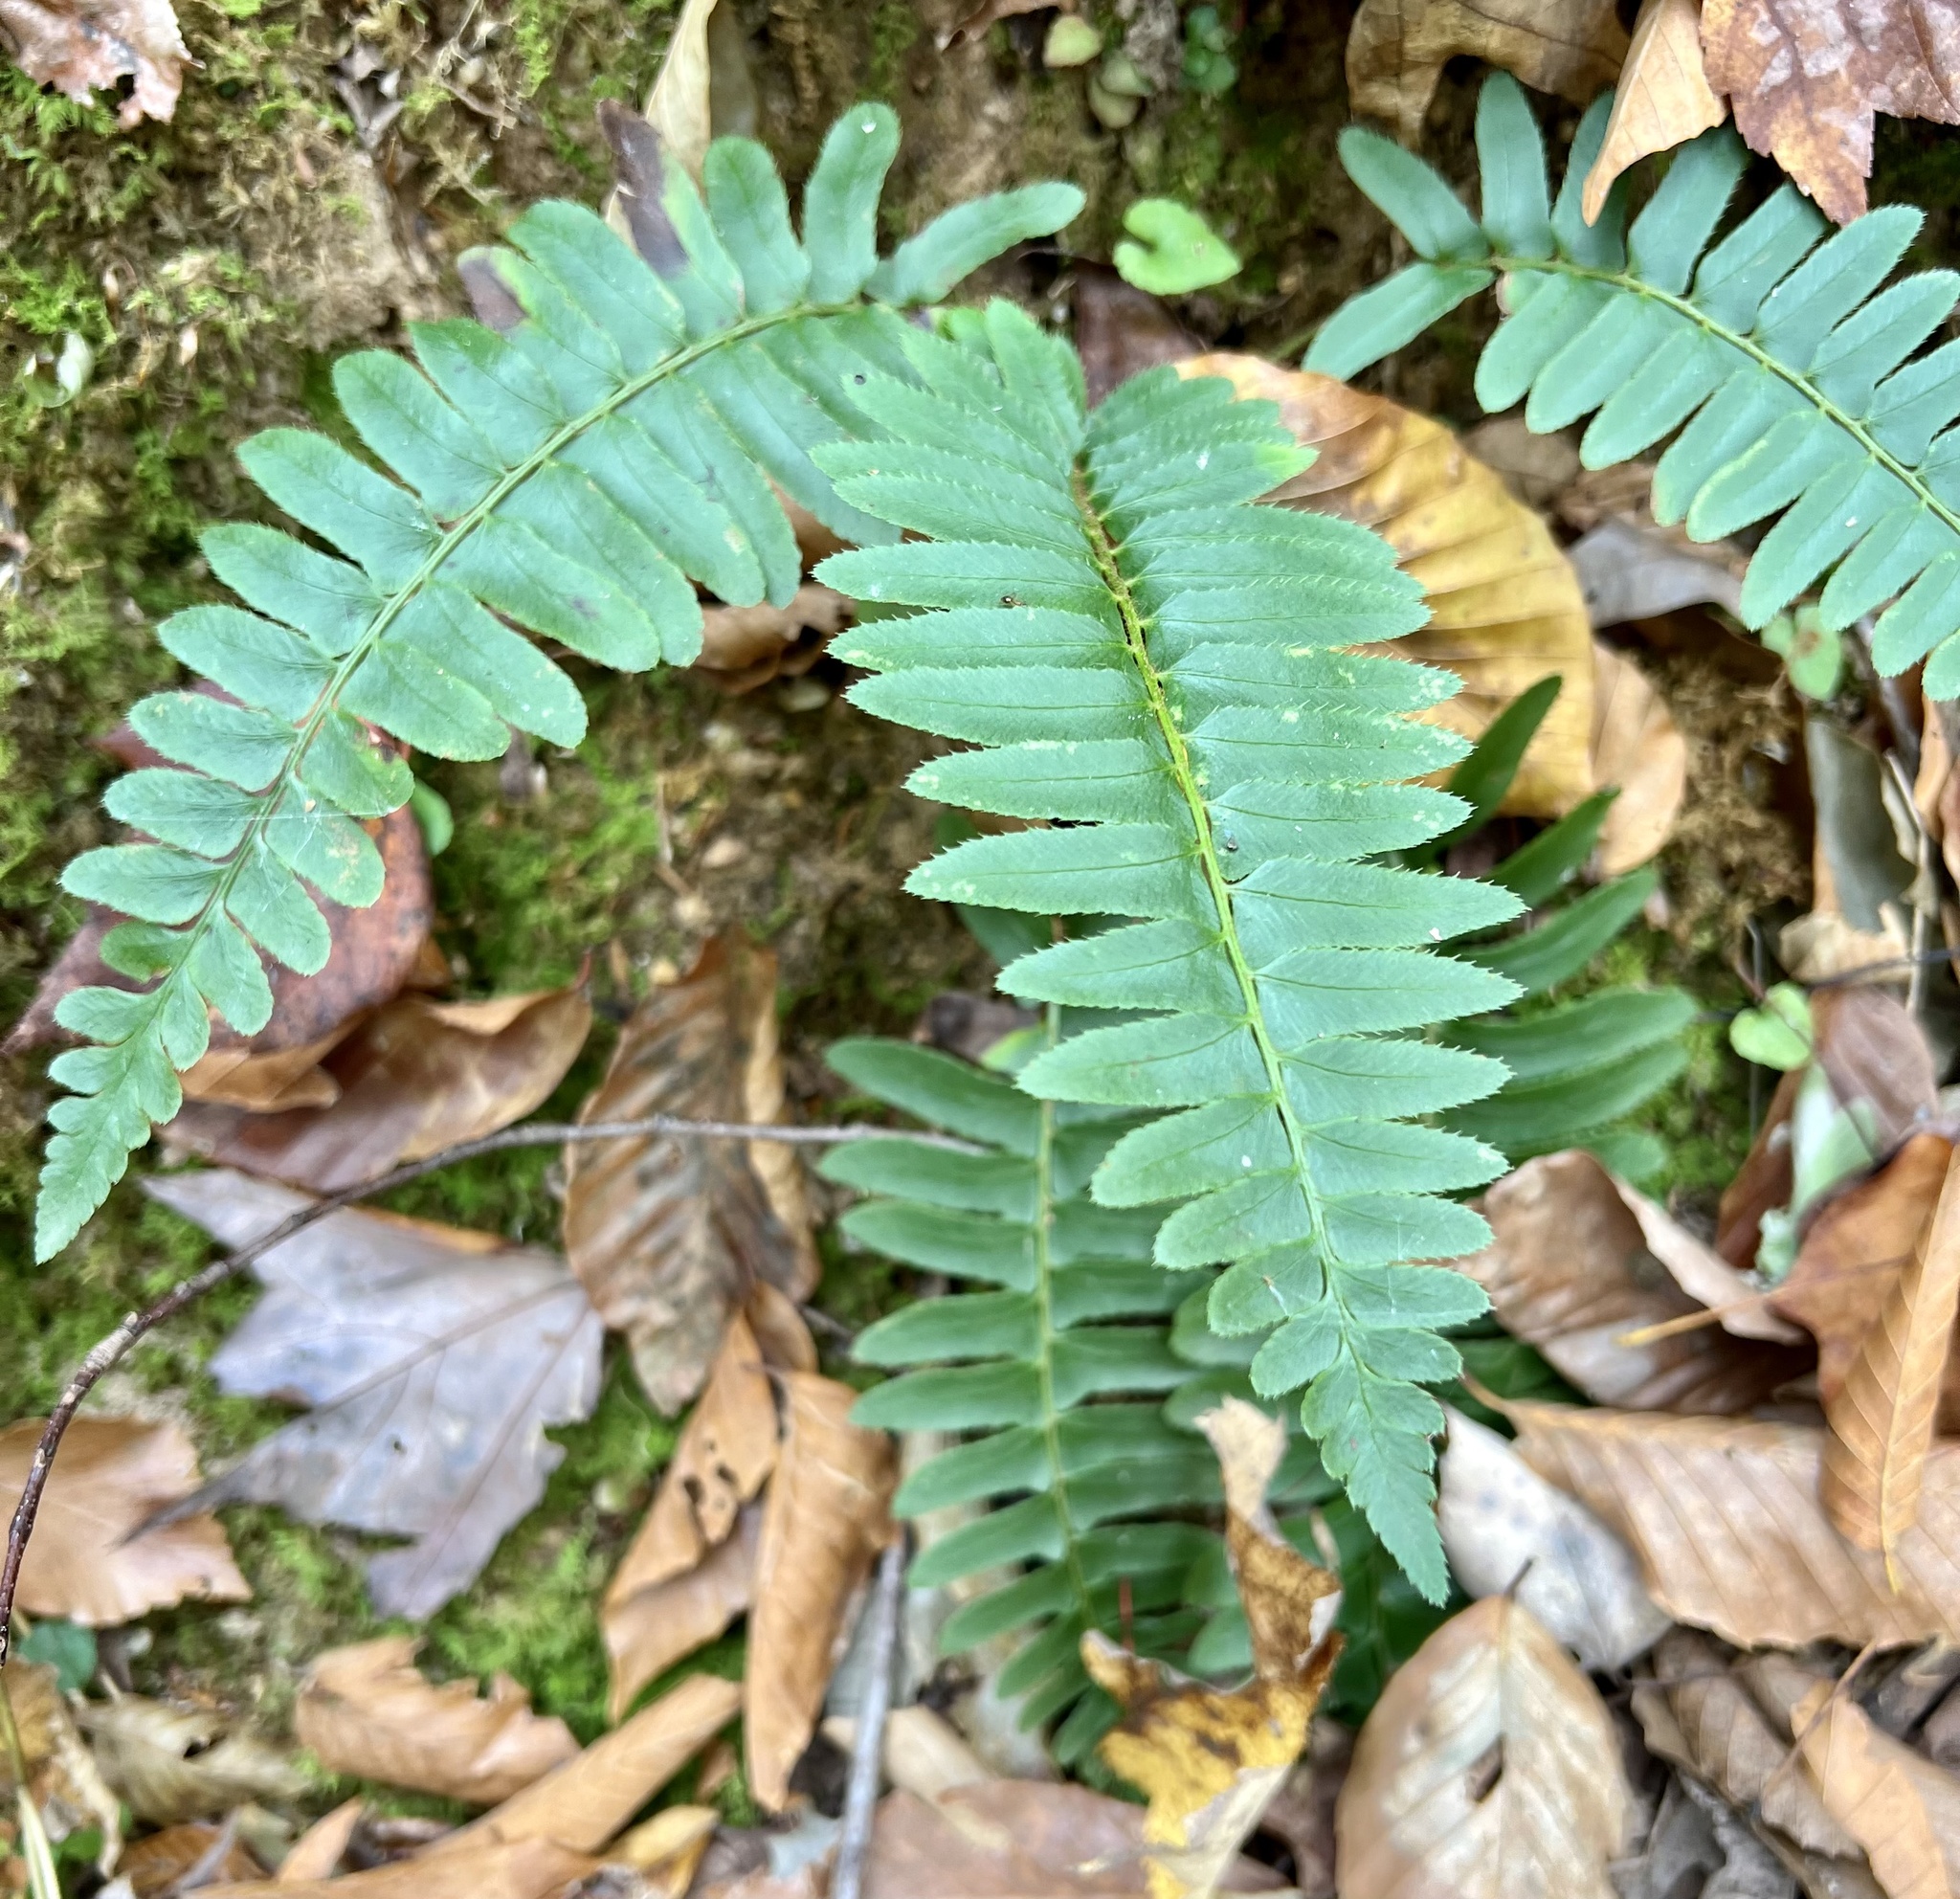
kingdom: Plantae
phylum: Tracheophyta
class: Polypodiopsida
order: Polypodiales
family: Dryopteridaceae
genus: Polystichum
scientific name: Polystichum acrostichoides
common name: Christmas fern
